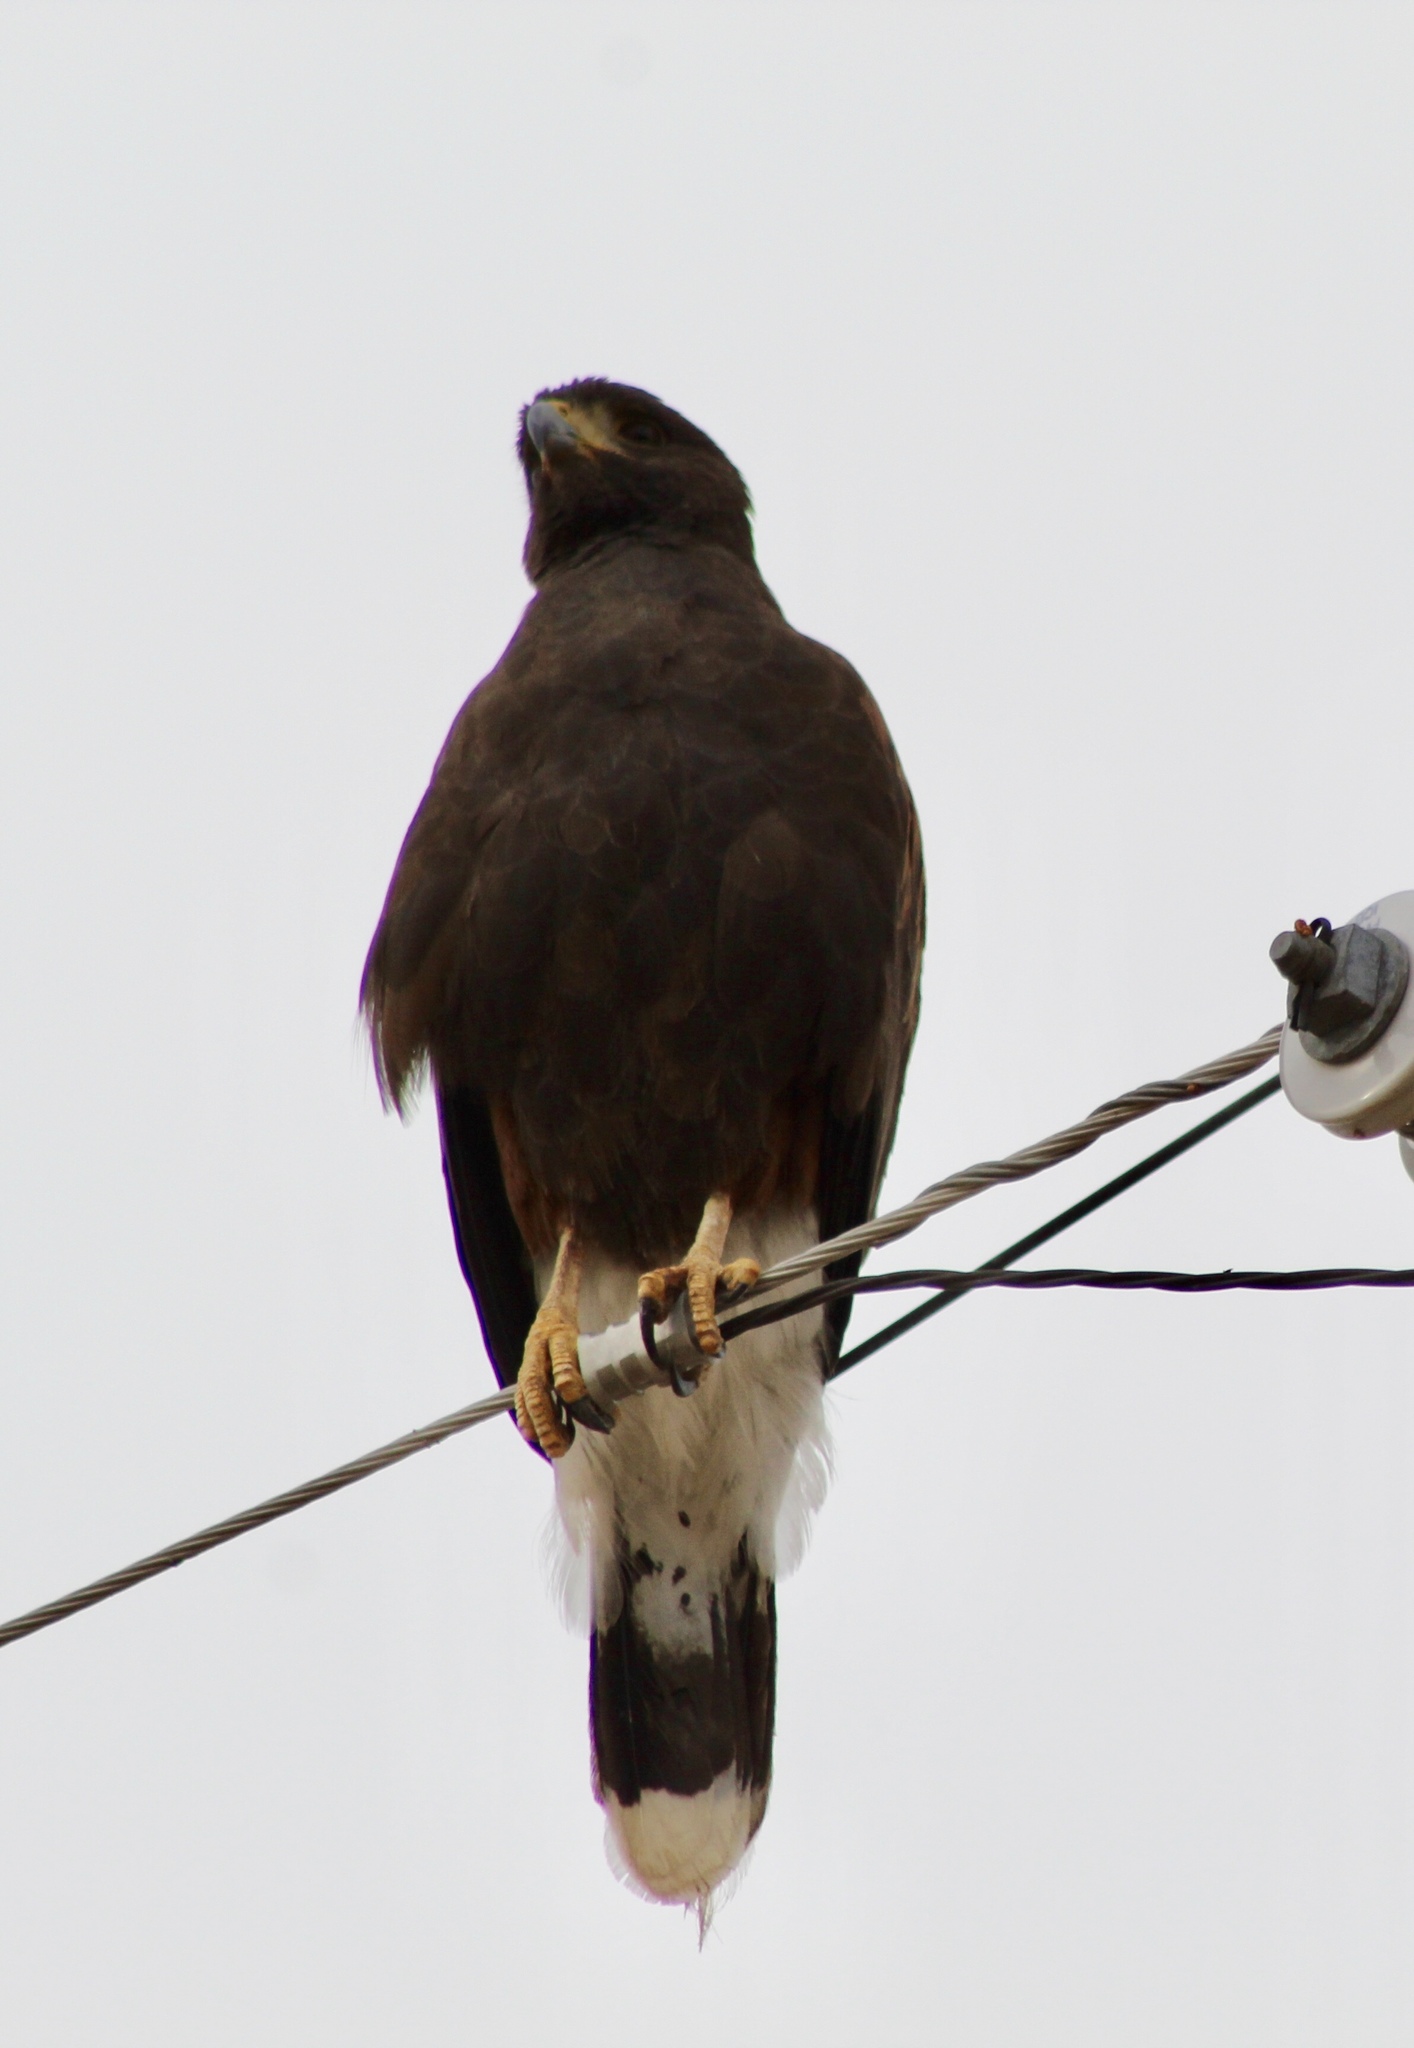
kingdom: Animalia
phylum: Chordata
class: Aves
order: Accipitriformes
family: Accipitridae
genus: Parabuteo
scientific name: Parabuteo unicinctus
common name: Harris's hawk
